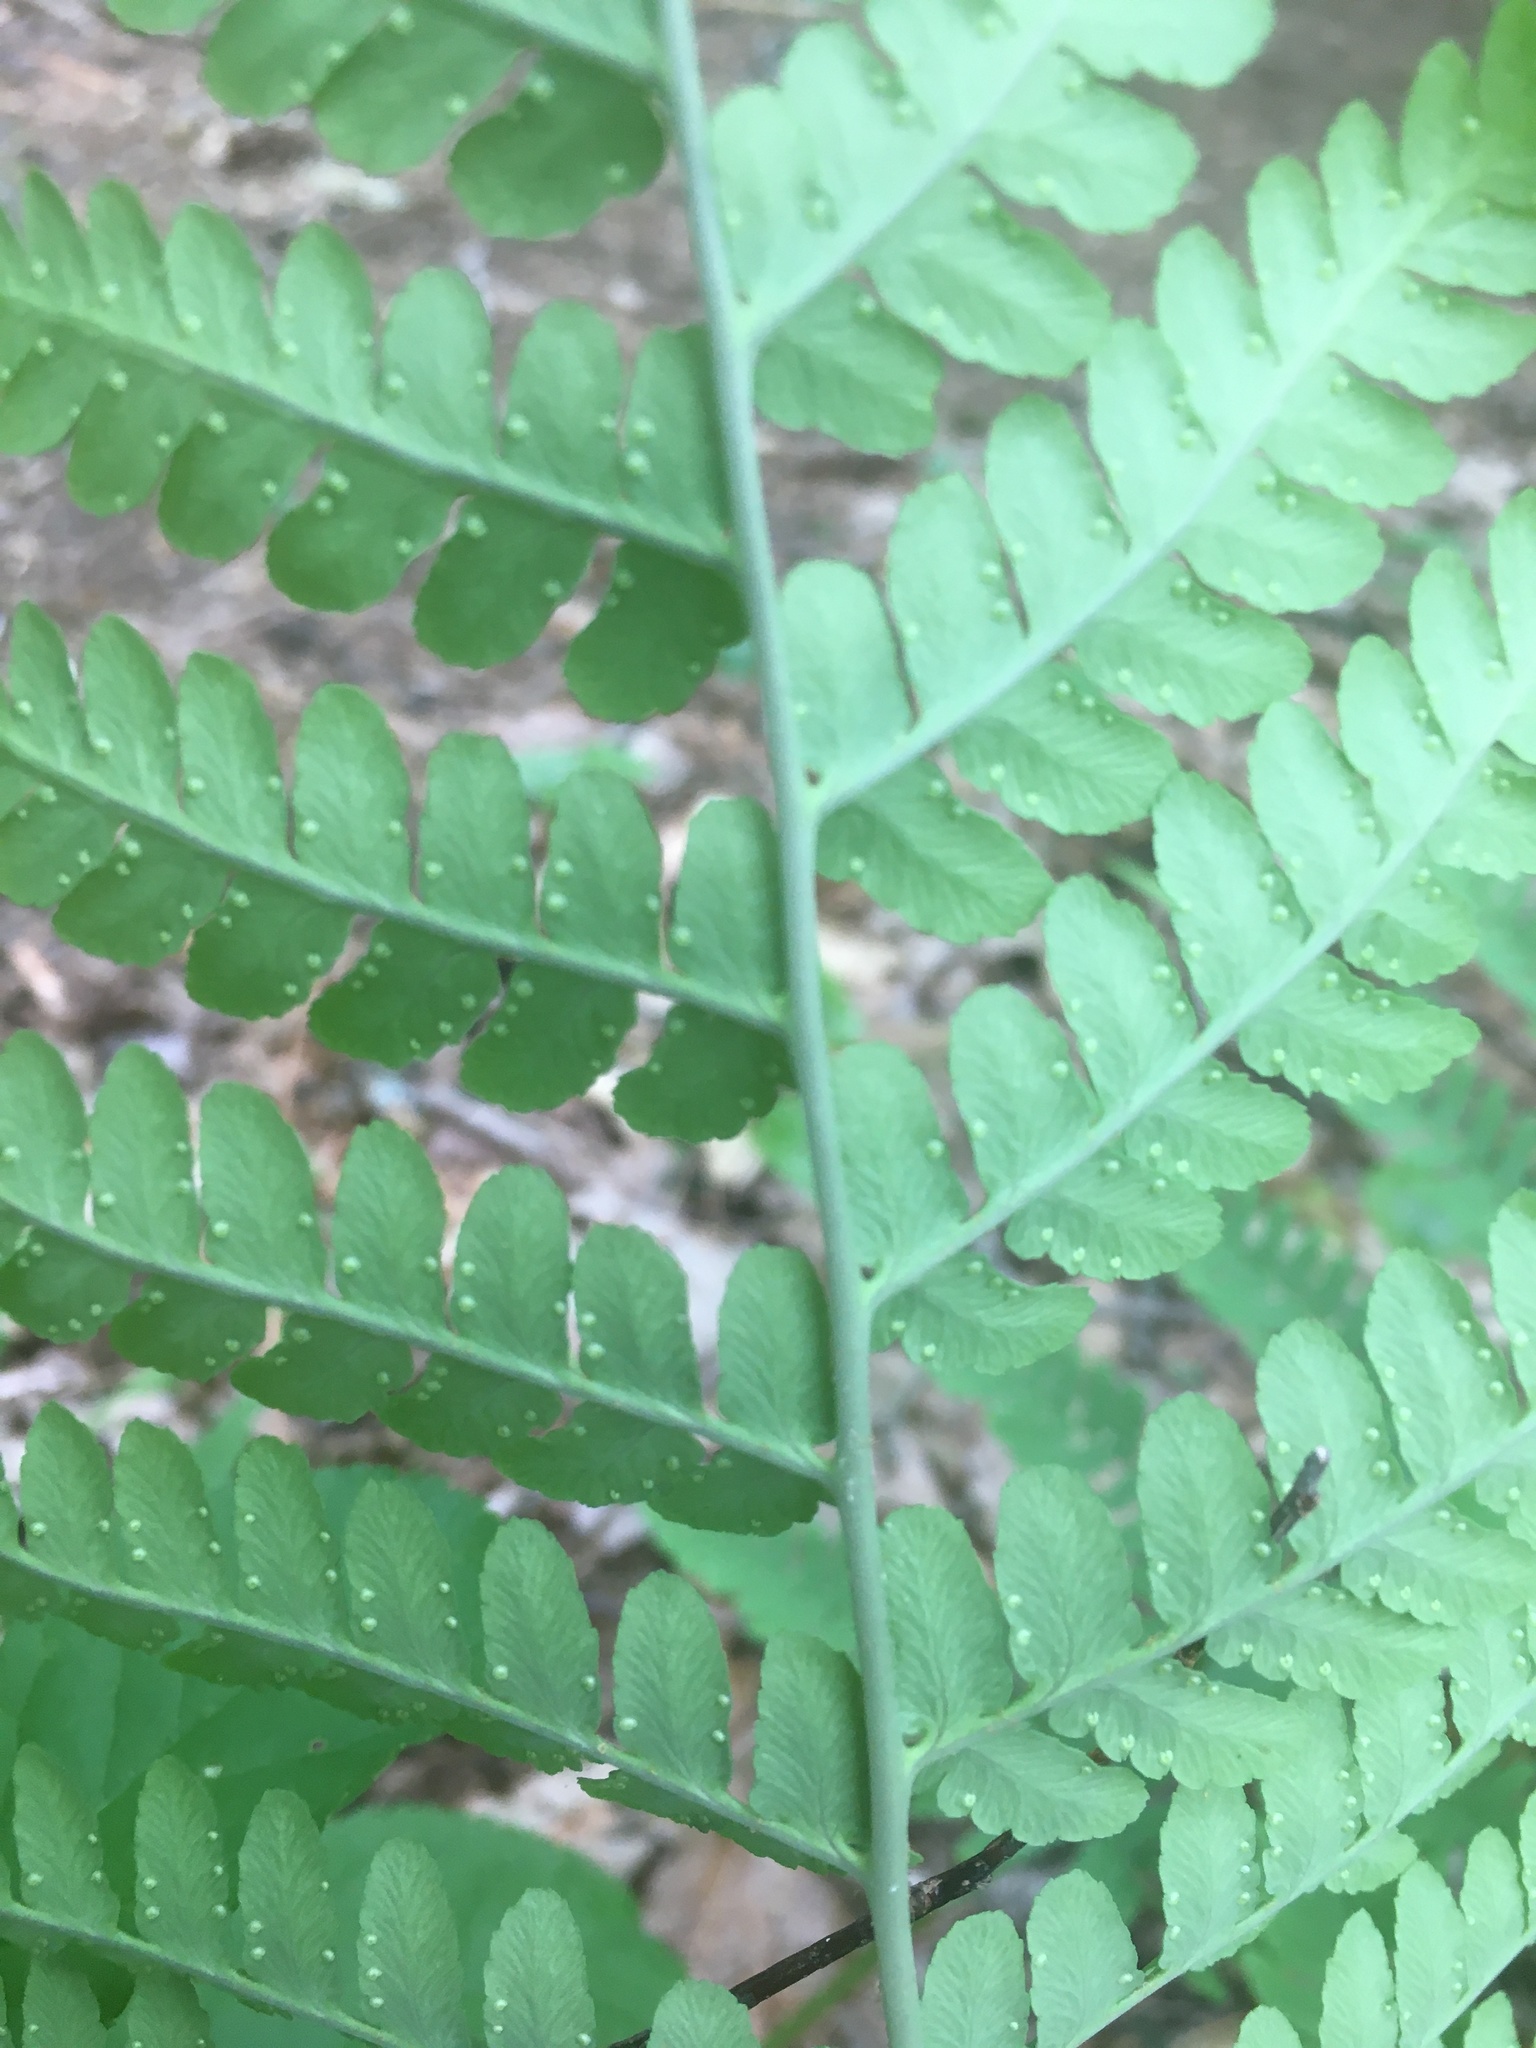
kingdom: Plantae
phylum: Tracheophyta
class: Polypodiopsida
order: Polypodiales
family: Dryopteridaceae
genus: Dryopteris
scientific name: Dryopteris marginalis
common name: Marginal wood fern
